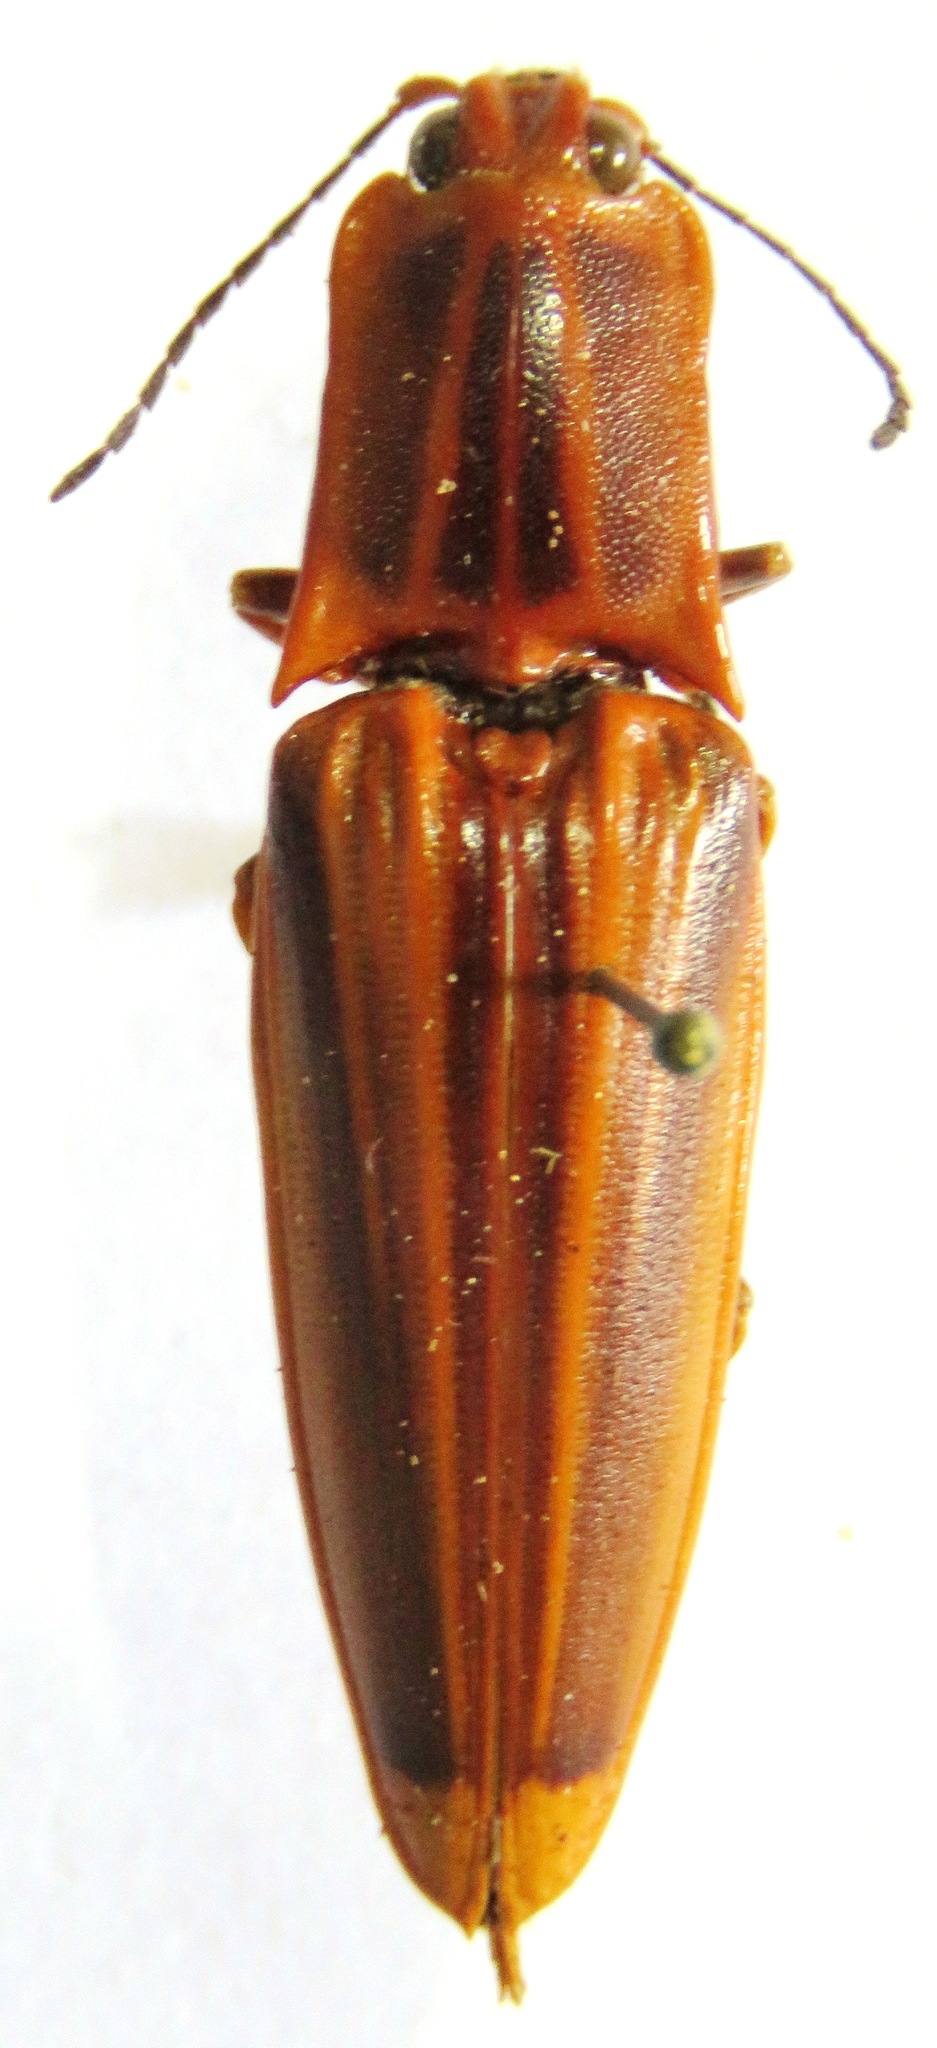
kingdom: Animalia
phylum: Arthropoda
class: Insecta
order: Coleoptera
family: Elateridae
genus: Semiotus
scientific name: Semiotus ligneus
